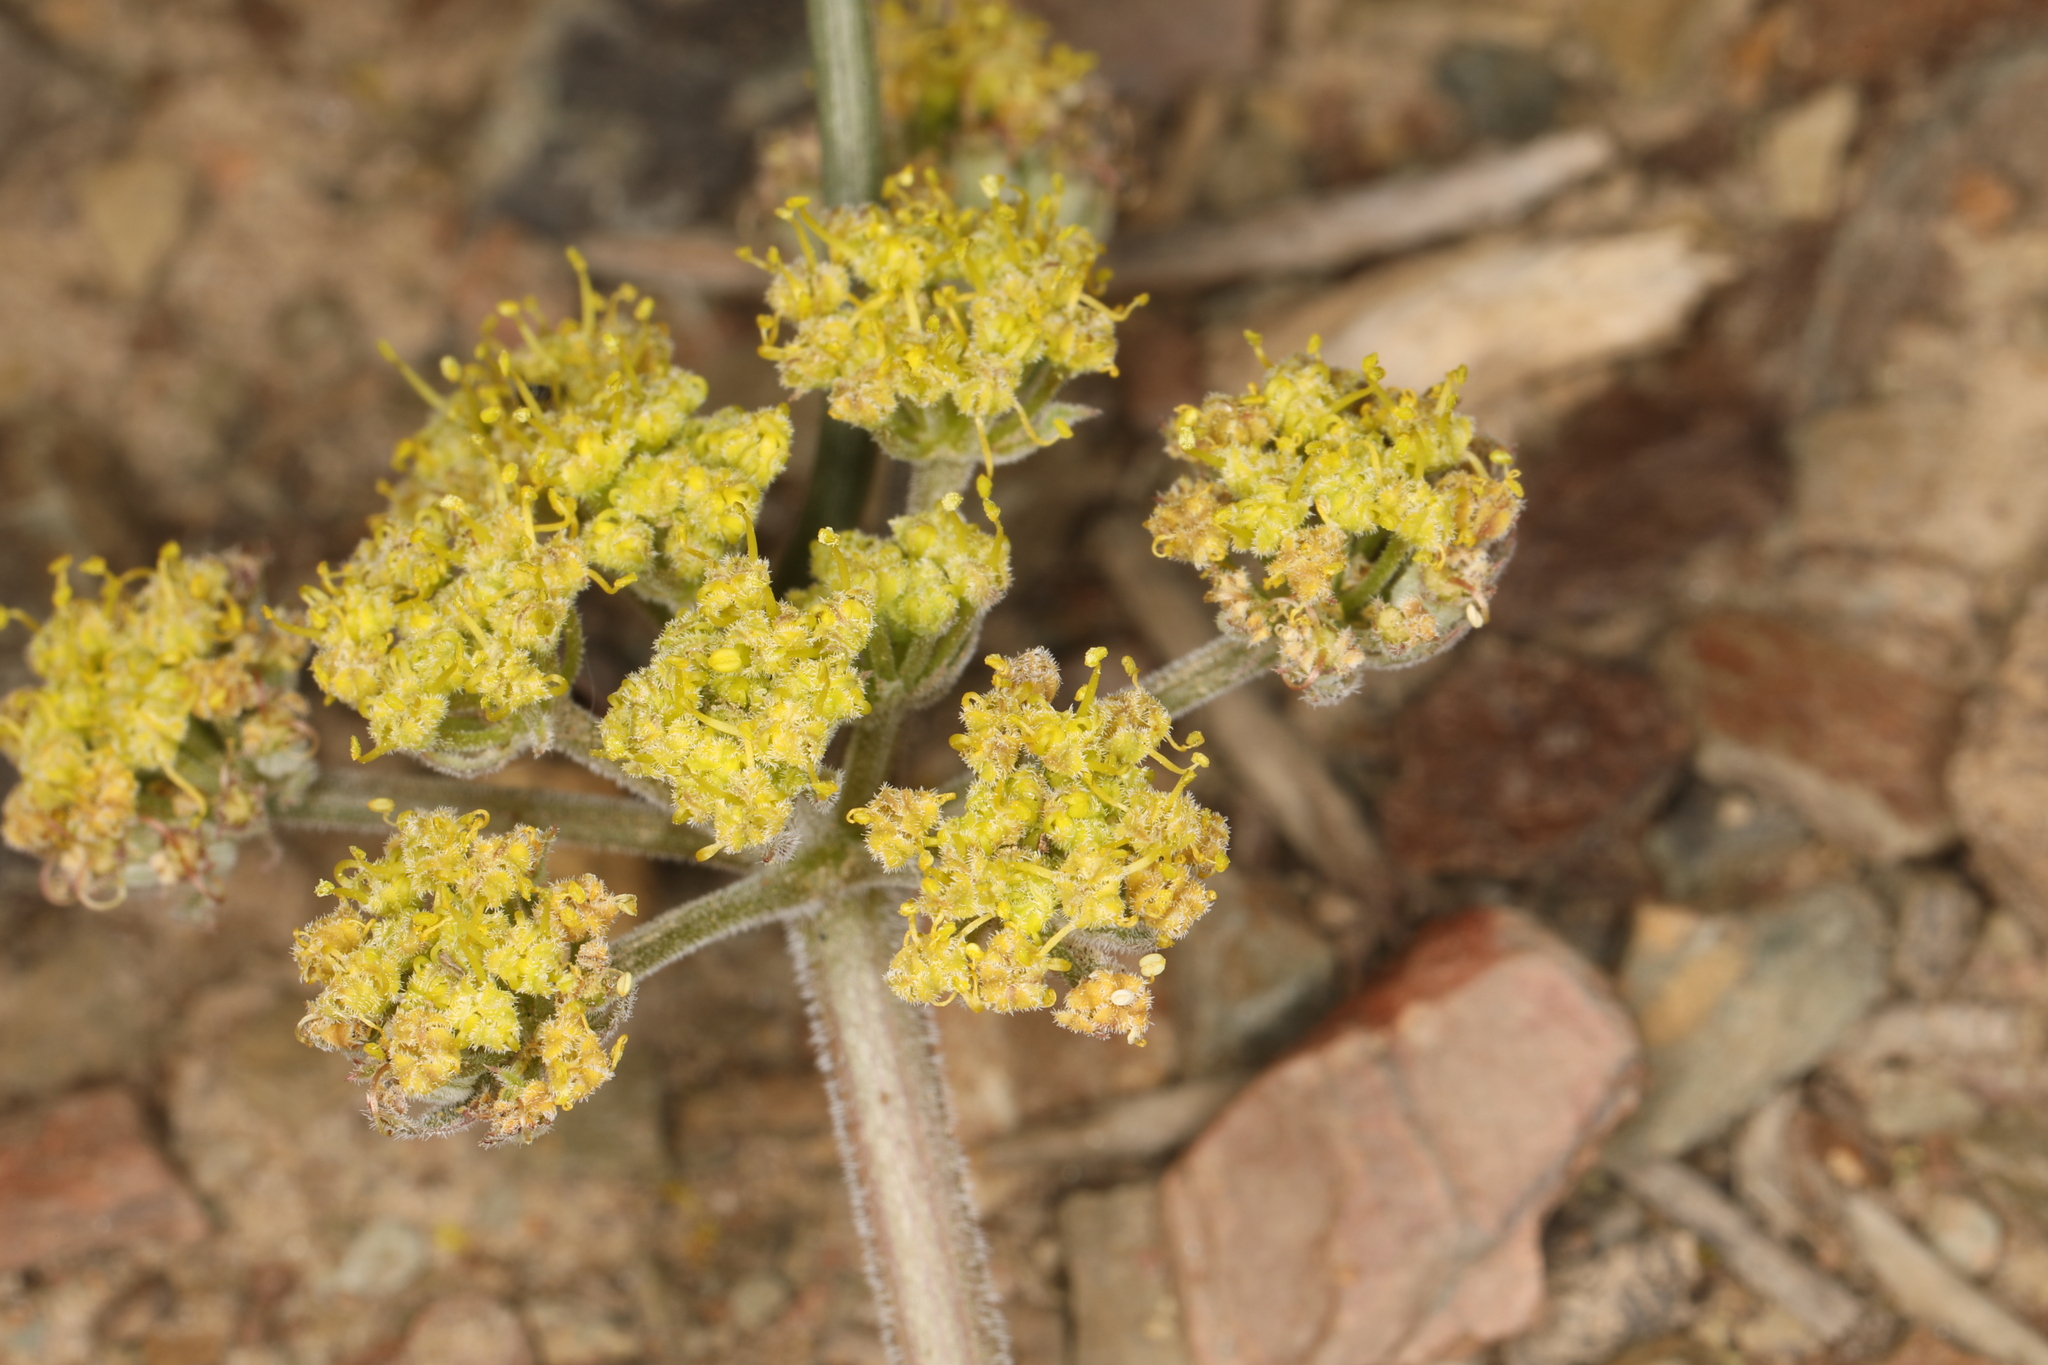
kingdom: Plantae
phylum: Tracheophyta
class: Magnoliopsida
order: Apiales
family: Apiaceae
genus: Lomatium
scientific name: Lomatium foeniculaceum
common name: Desert-parsley
